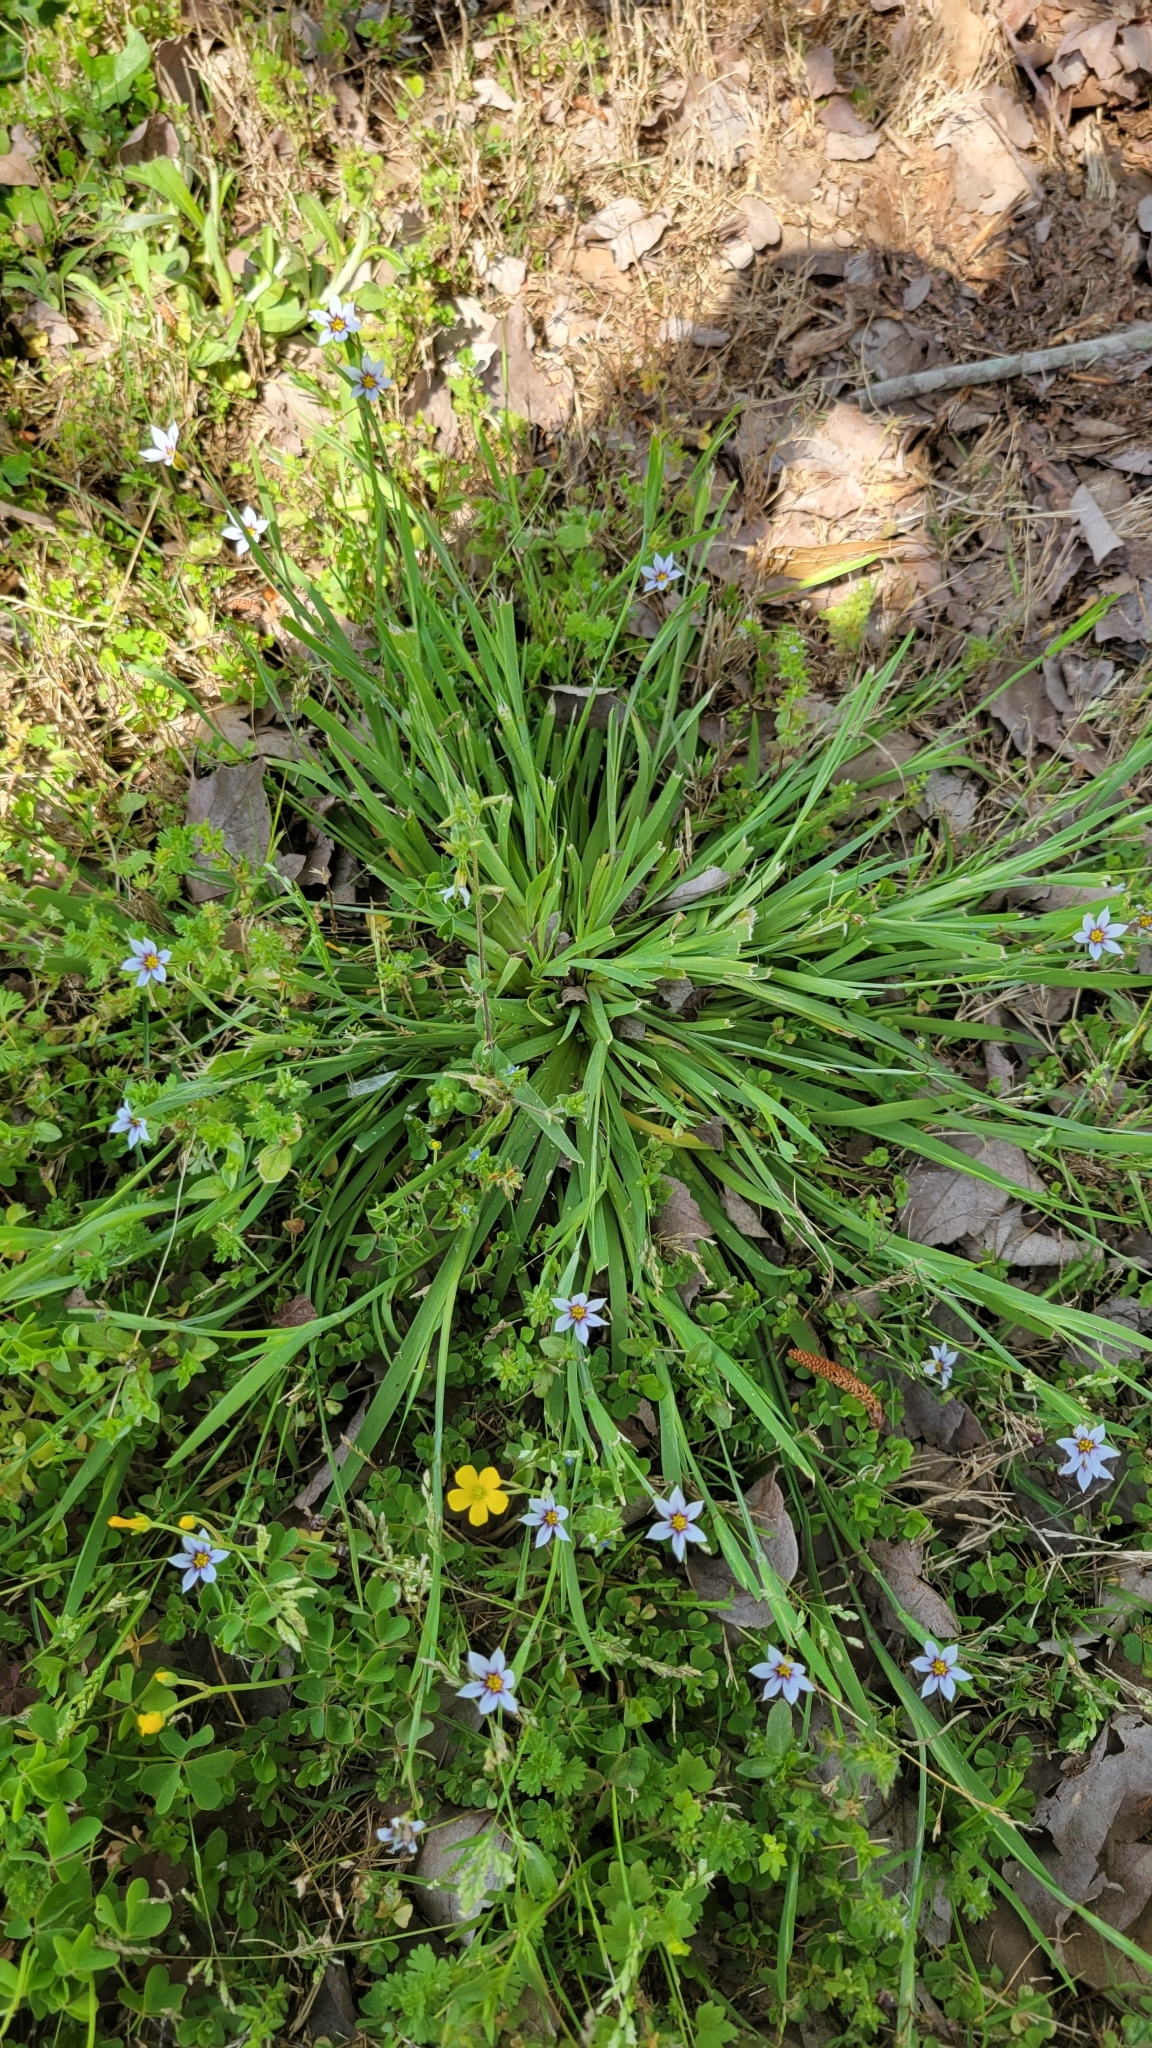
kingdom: Plantae
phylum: Tracheophyta
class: Liliopsida
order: Asparagales
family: Iridaceae
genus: Sisyrinchium
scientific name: Sisyrinchium micranthum
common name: Bermuda pigroot
